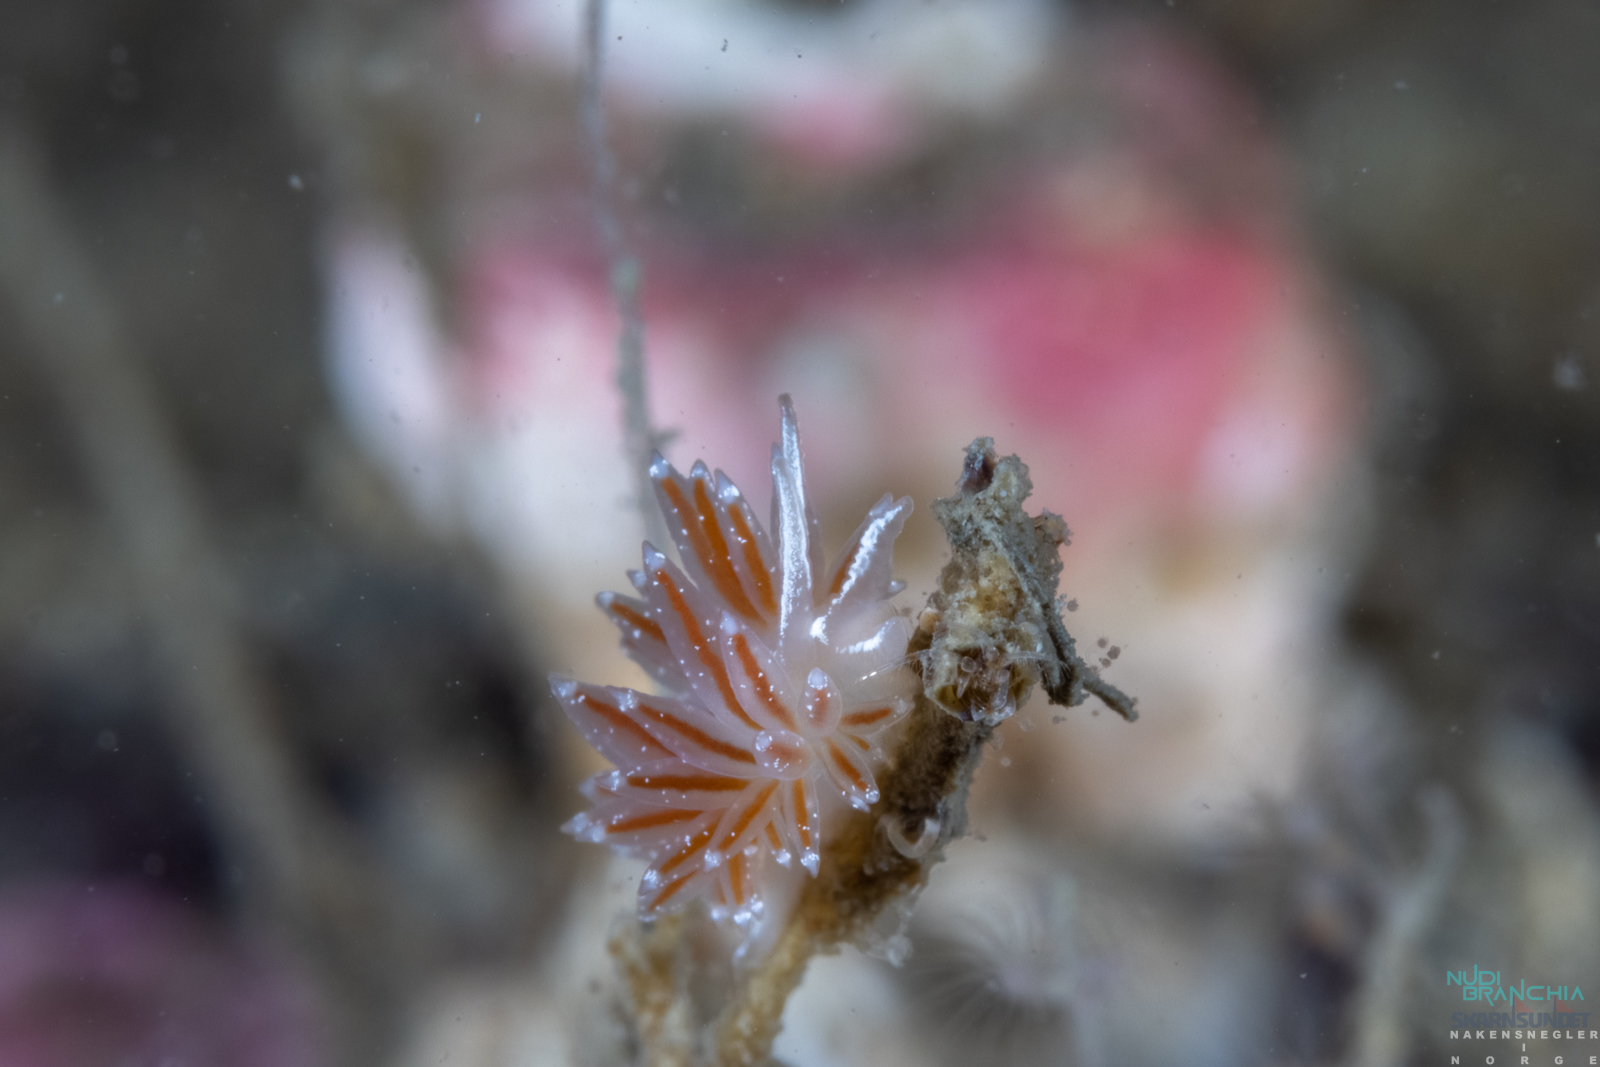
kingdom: Animalia
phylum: Mollusca
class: Gastropoda
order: Nudibranchia
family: Coryphellidae
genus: Coryphella
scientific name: Coryphella orjani
